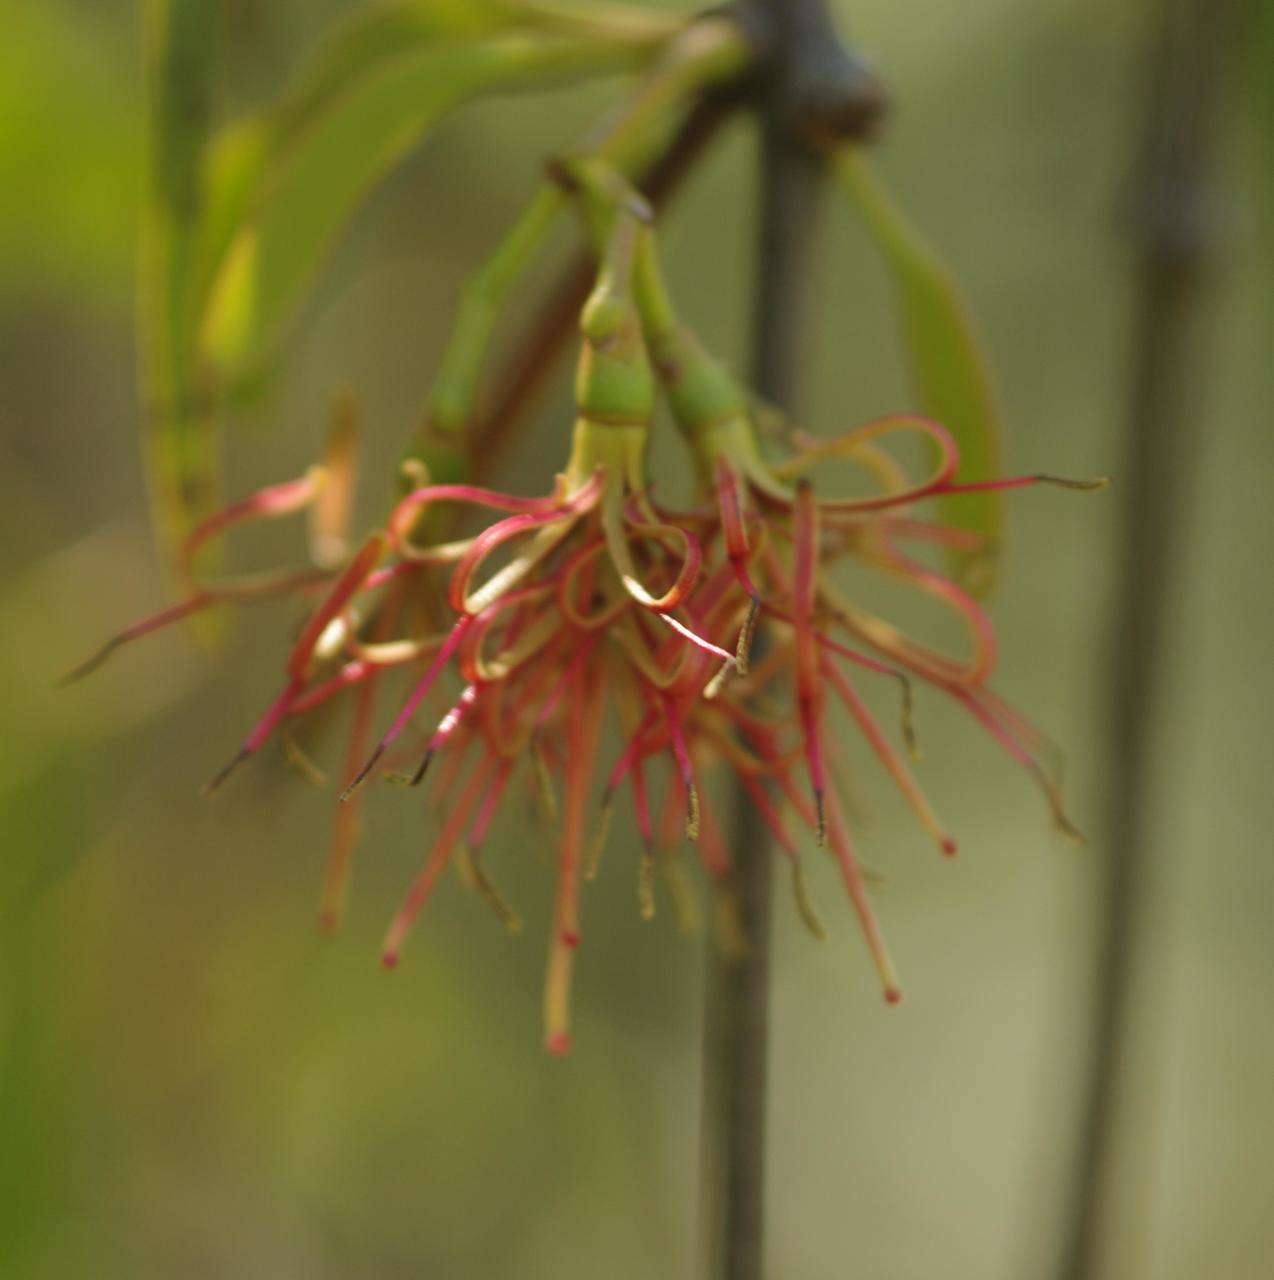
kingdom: Plantae
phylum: Tracheophyta
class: Magnoliopsida
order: Santalales
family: Loranthaceae
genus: Amyema
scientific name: Amyema miquelii
